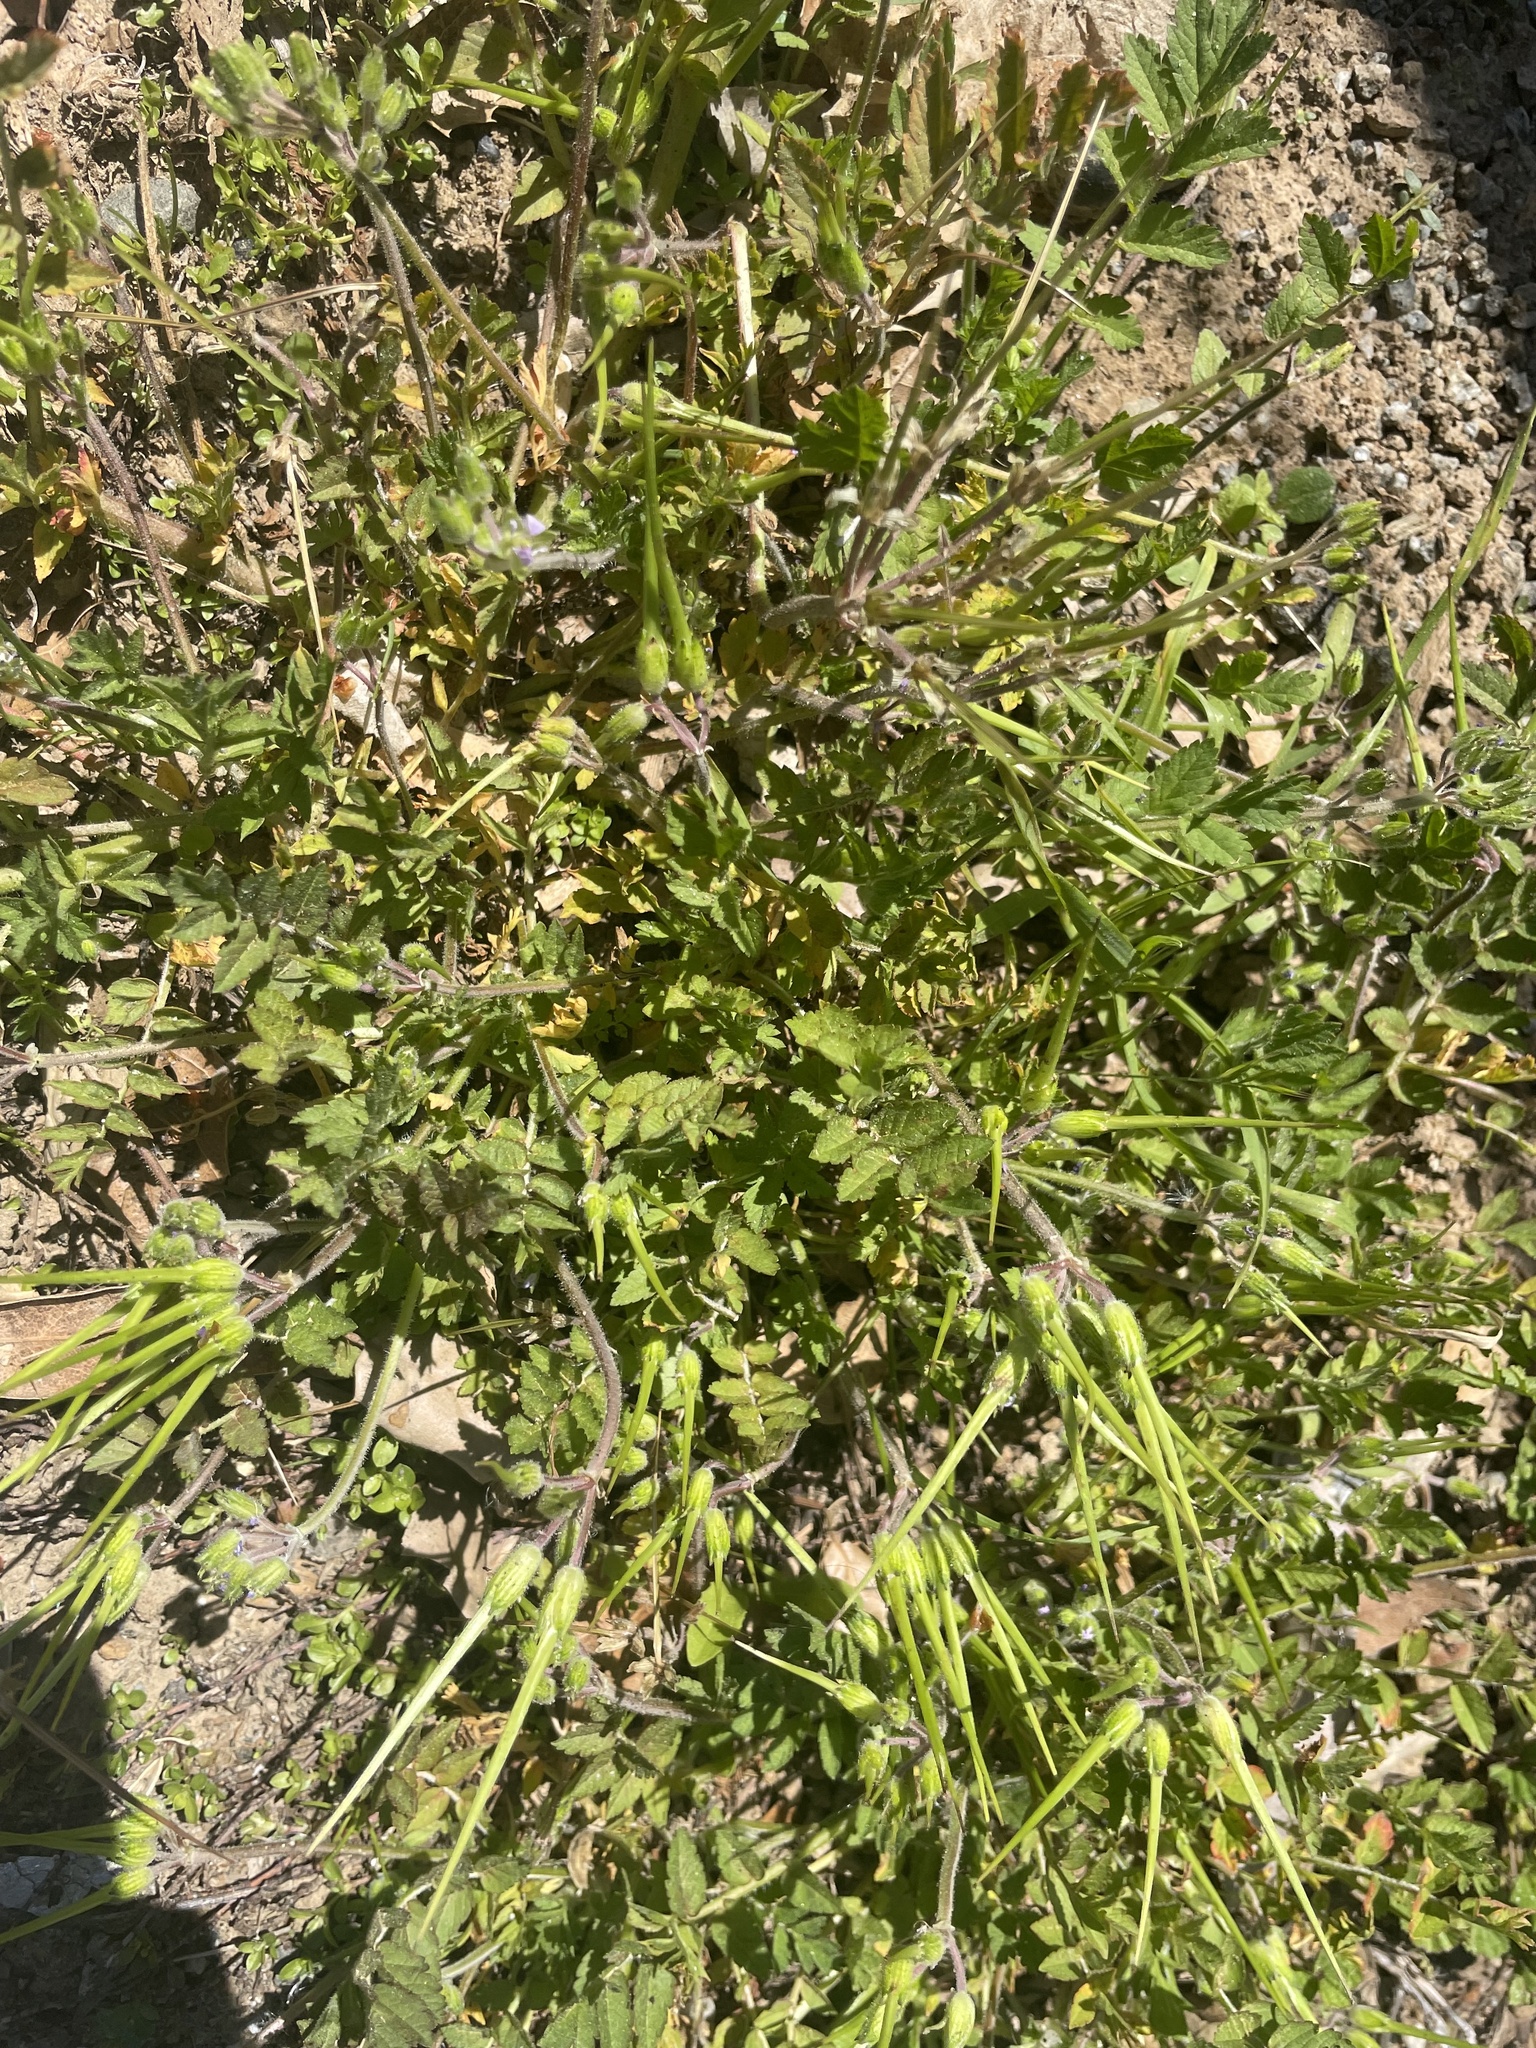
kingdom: Plantae
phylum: Tracheophyta
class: Magnoliopsida
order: Geraniales
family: Geraniaceae
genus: Erodium
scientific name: Erodium moschatum
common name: Musk stork's-bill
